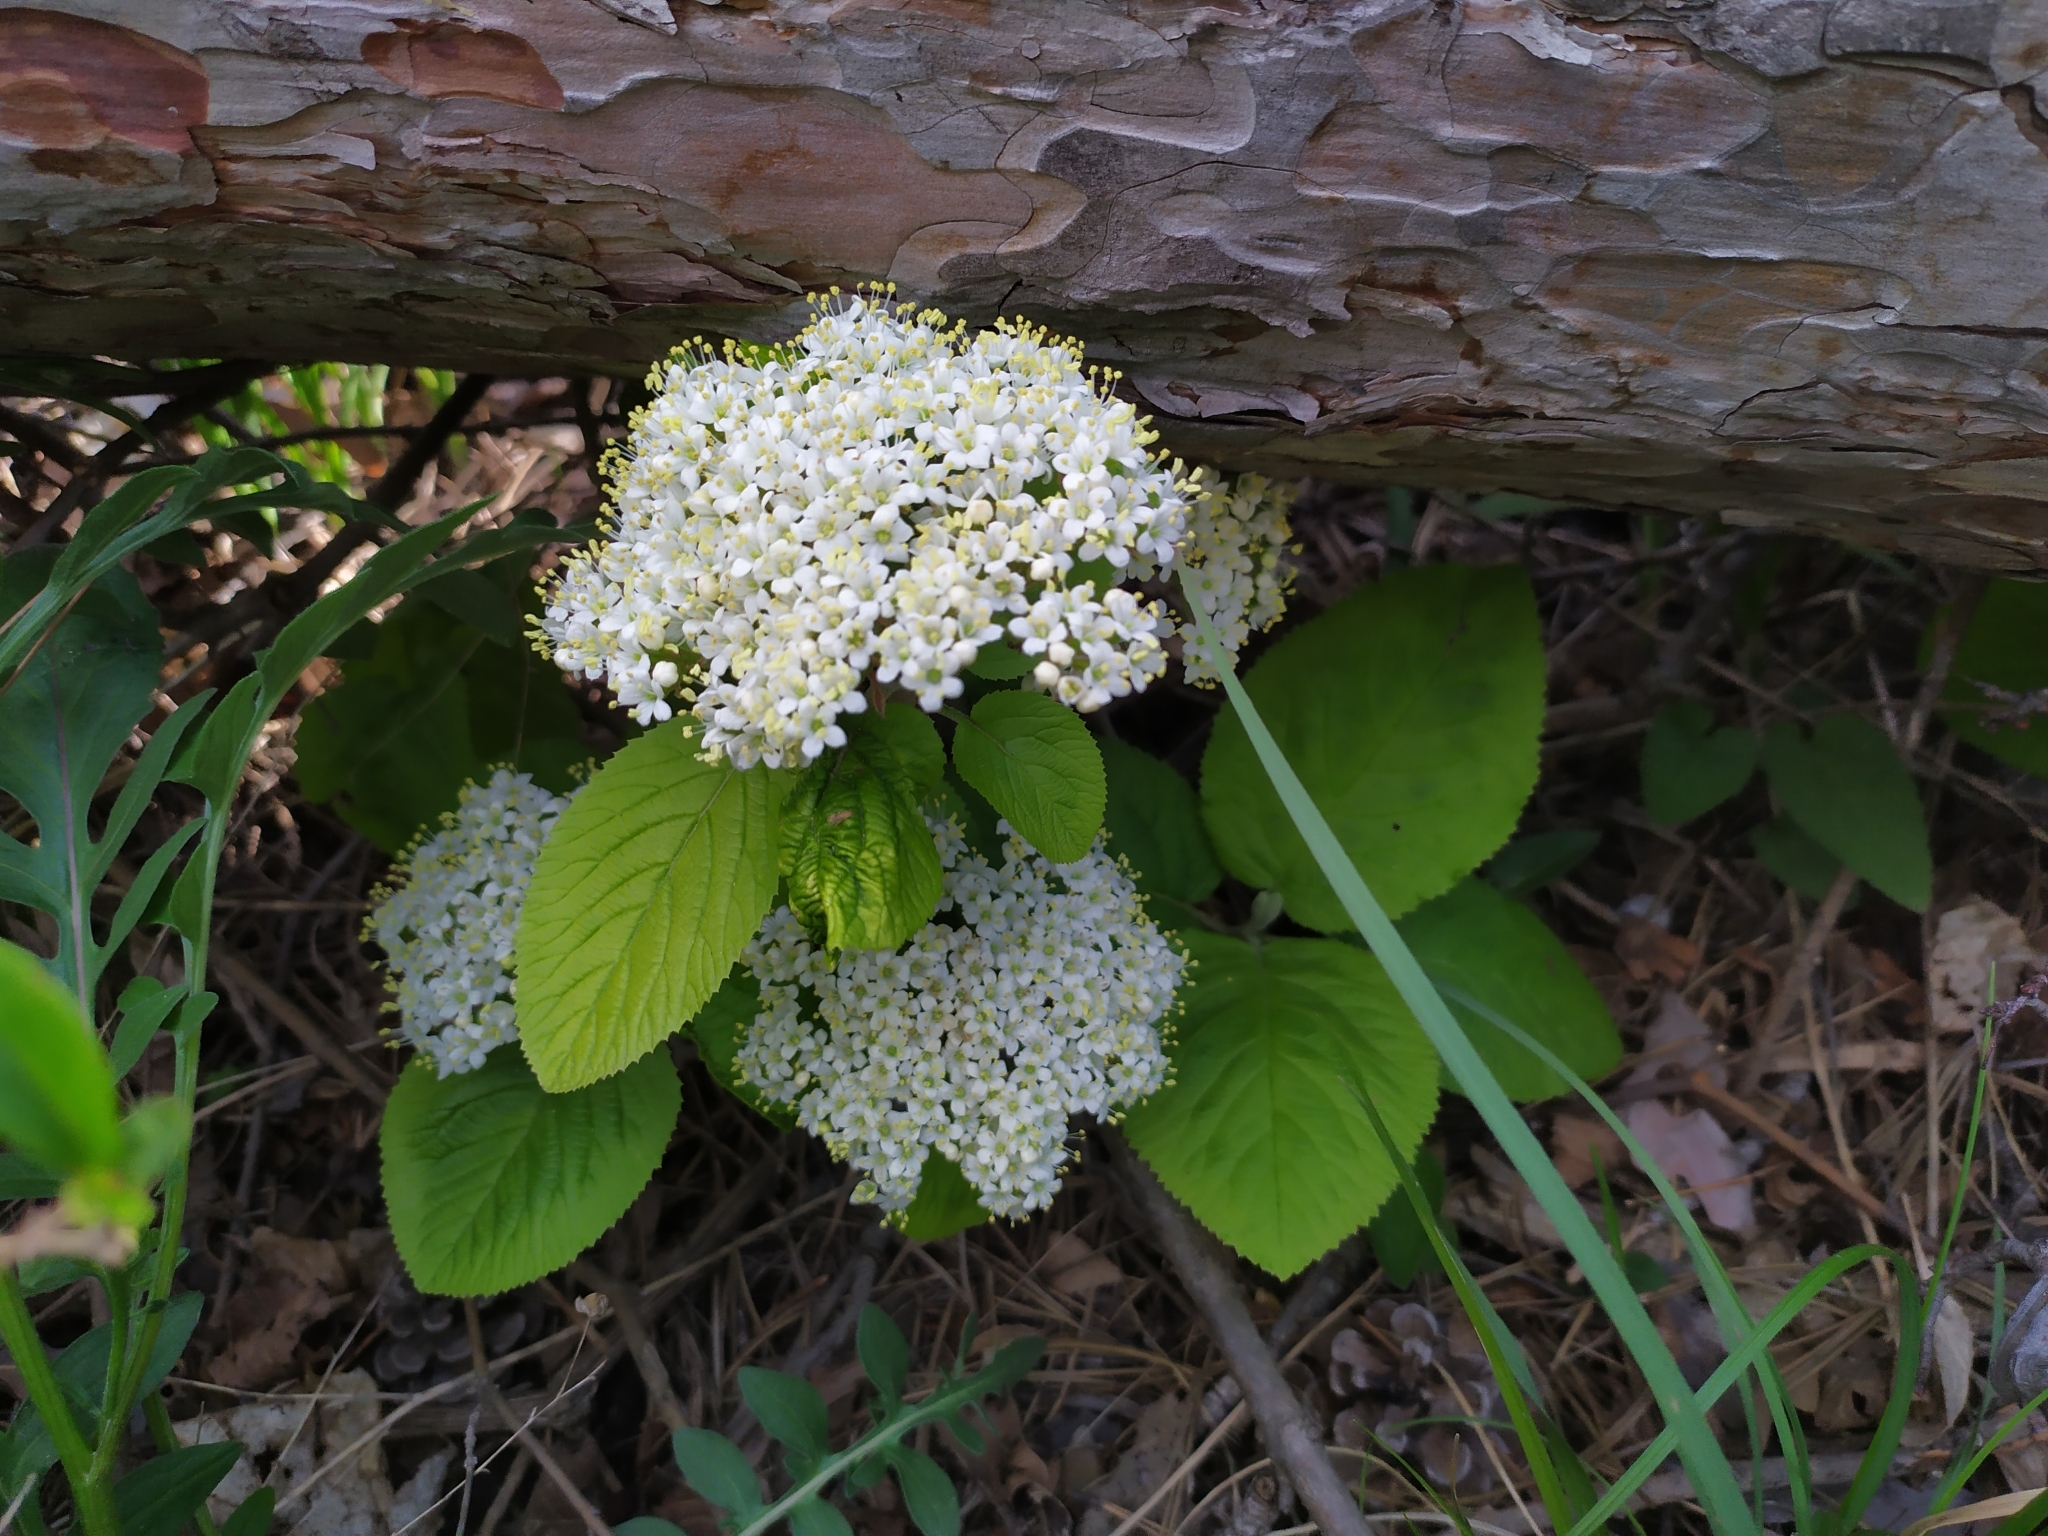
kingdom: Plantae
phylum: Tracheophyta
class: Magnoliopsida
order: Dipsacales
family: Viburnaceae
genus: Viburnum
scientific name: Viburnum lantana
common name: Wayfaring tree
